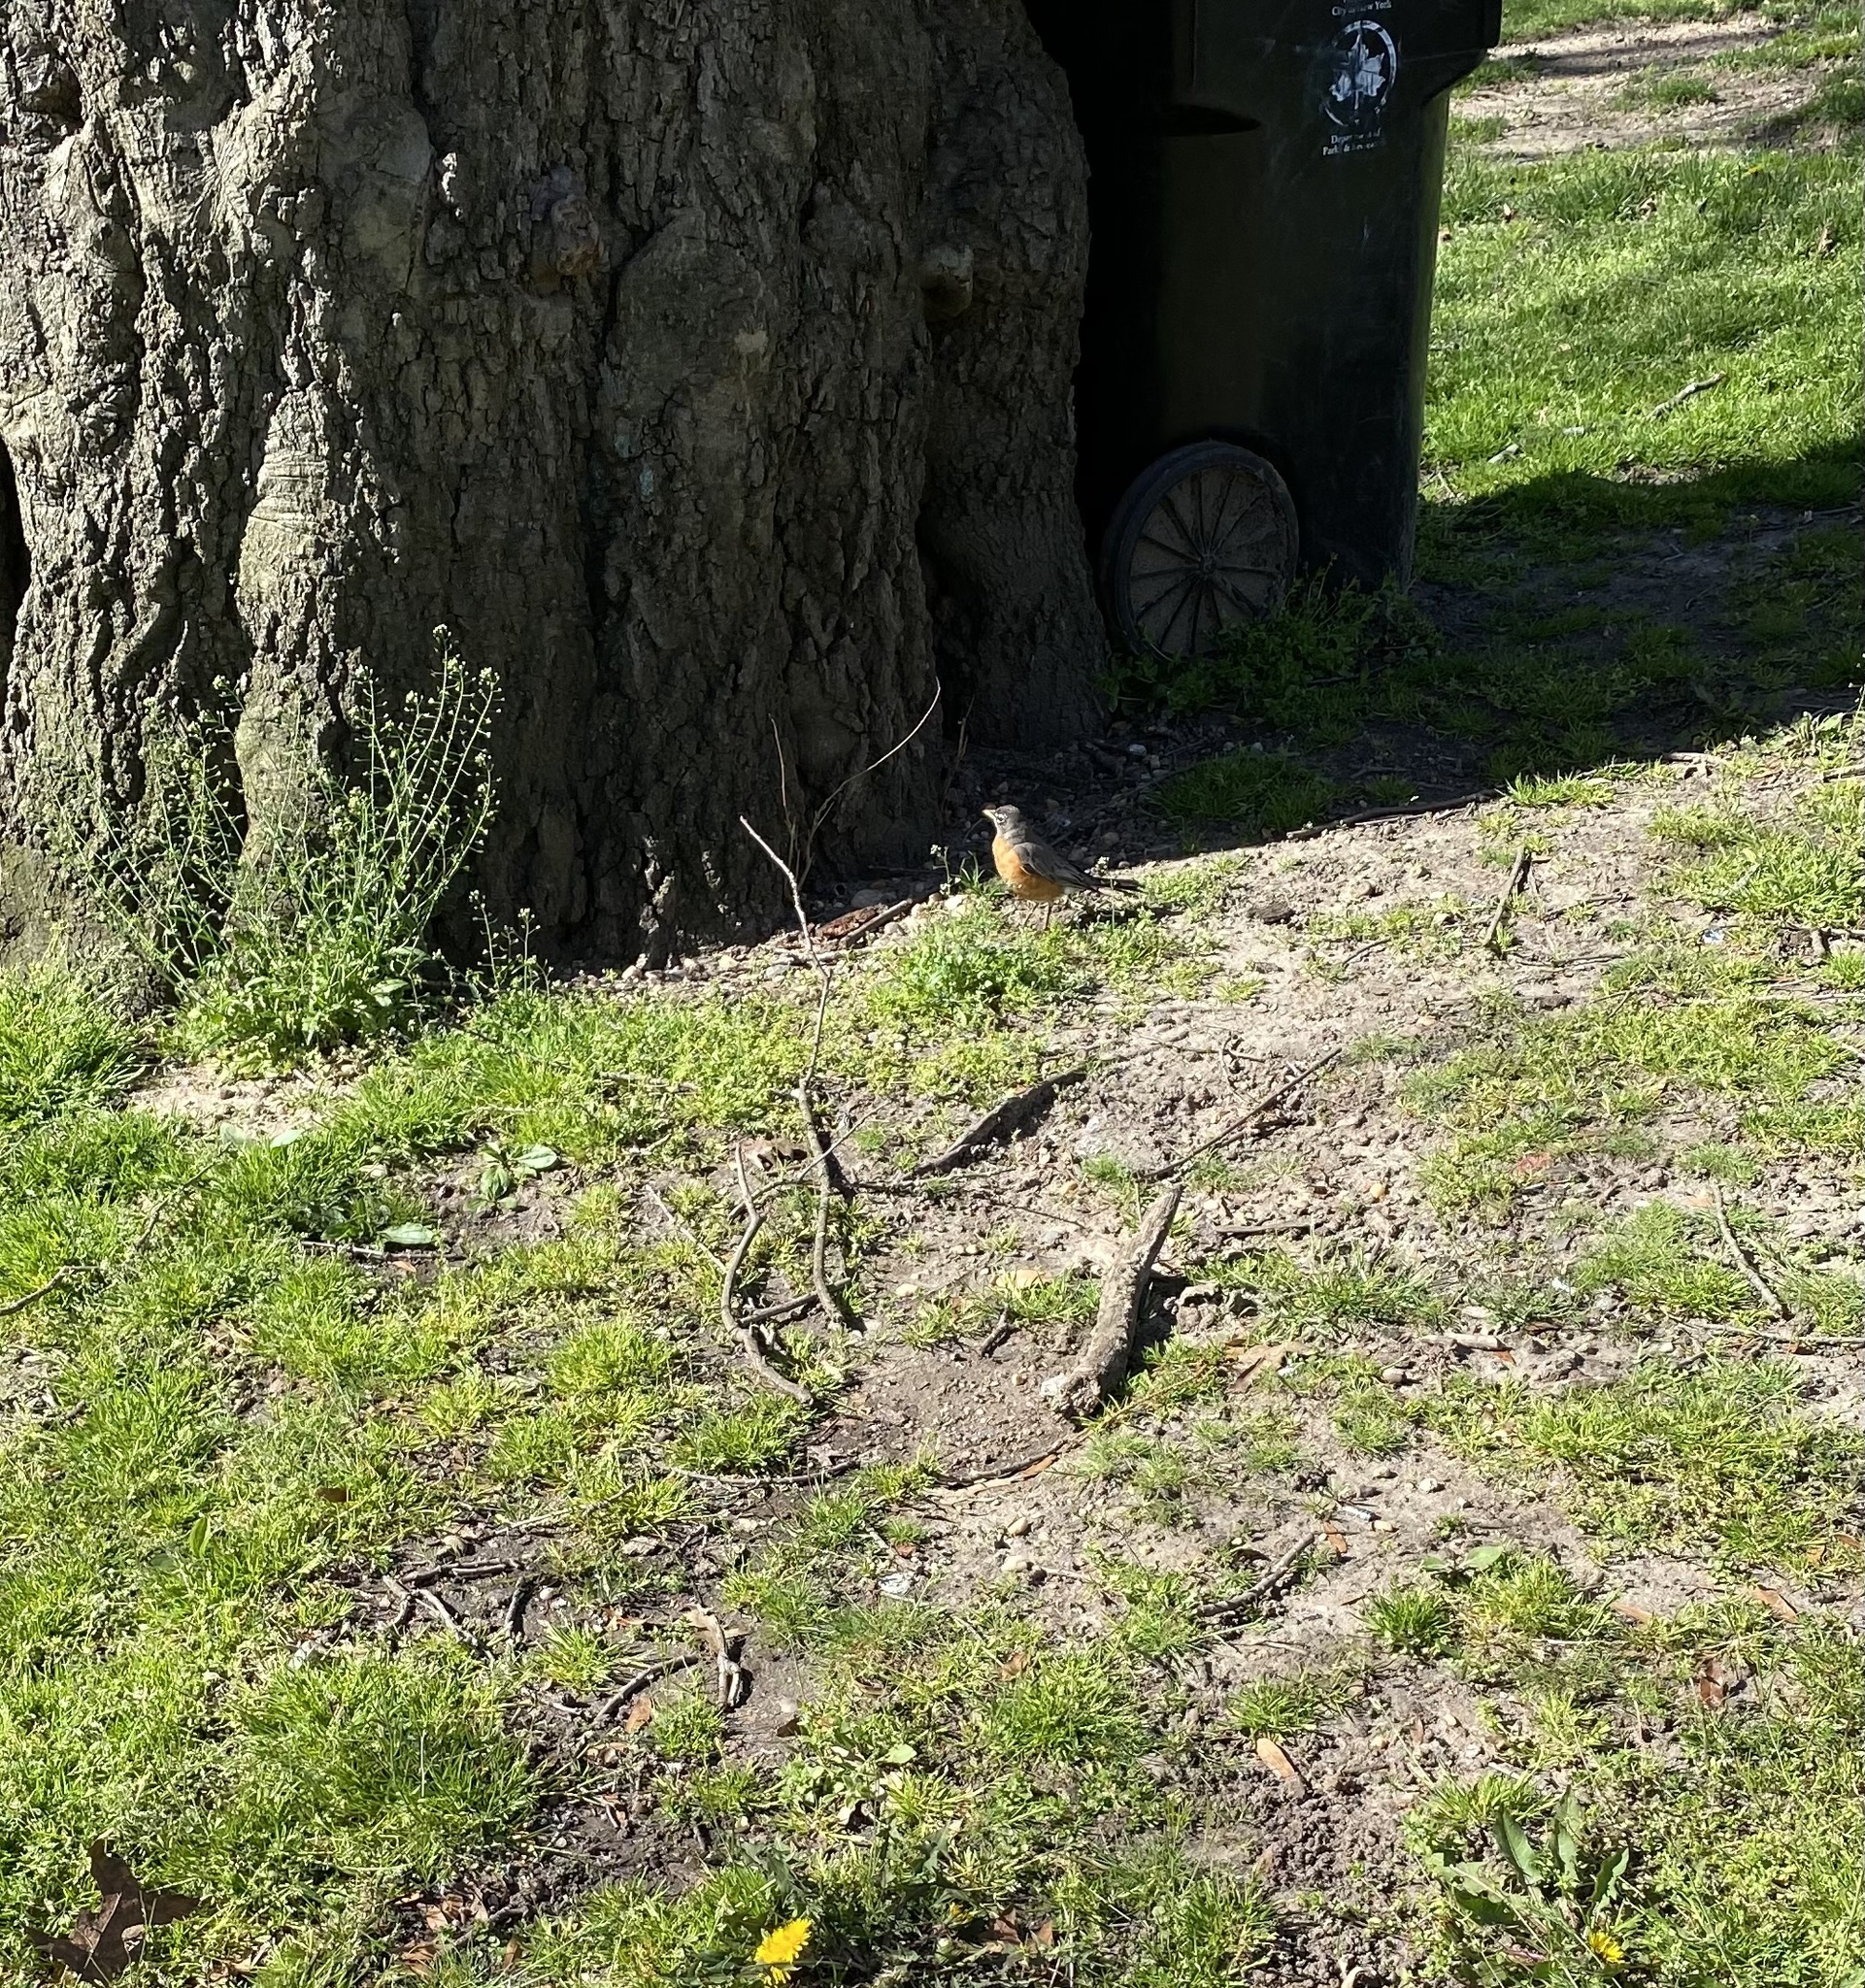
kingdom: Animalia
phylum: Chordata
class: Aves
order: Passeriformes
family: Turdidae
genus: Turdus
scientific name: Turdus migratorius
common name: American robin
